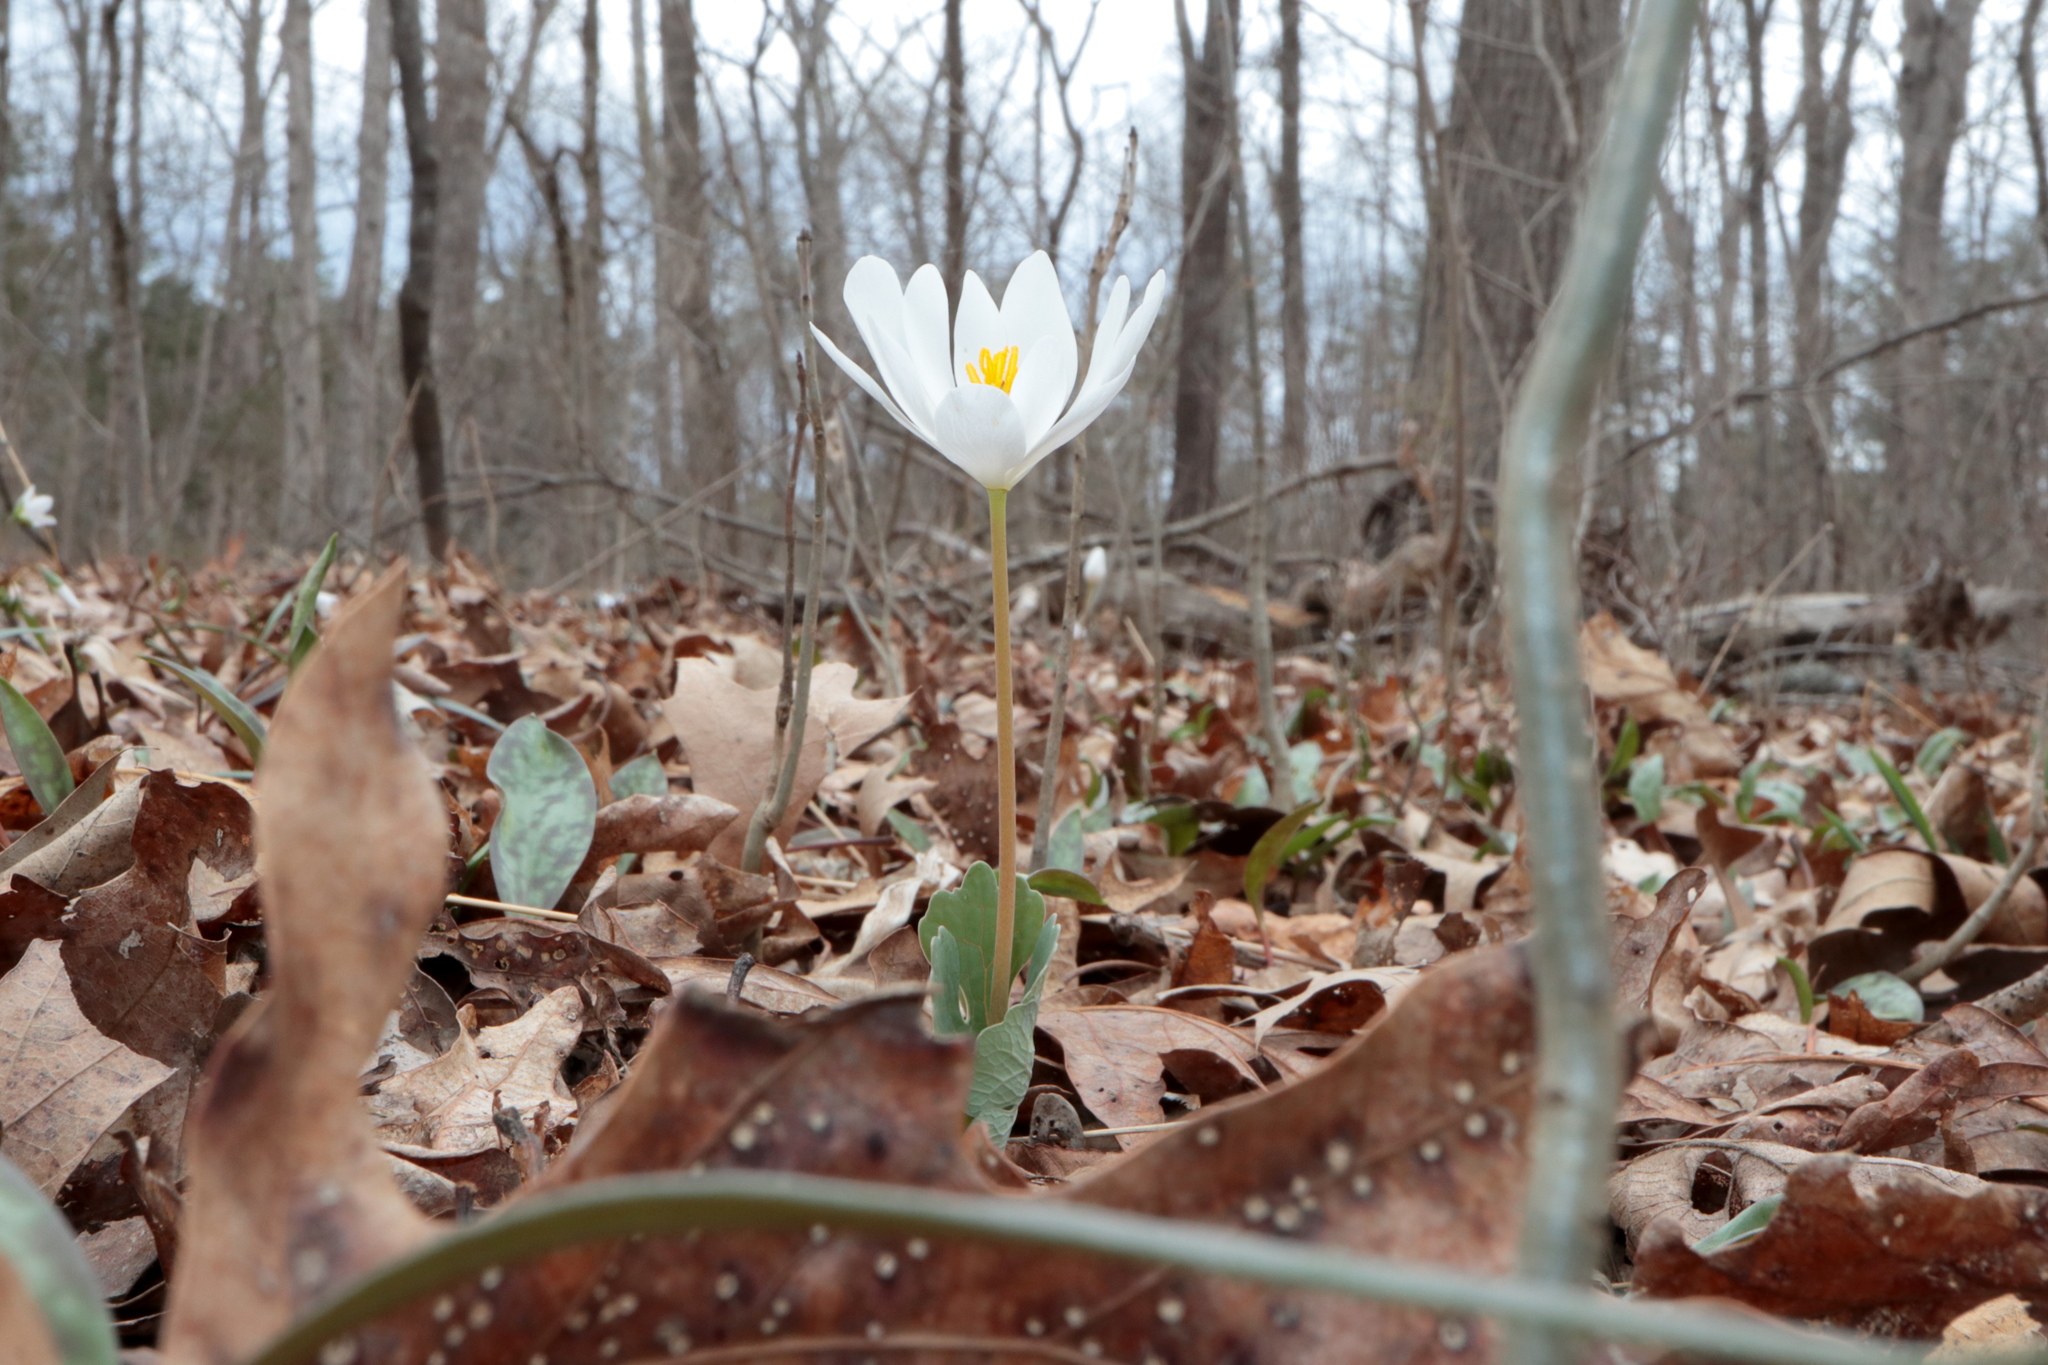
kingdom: Plantae
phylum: Tracheophyta
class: Magnoliopsida
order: Ranunculales
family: Papaveraceae
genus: Sanguinaria
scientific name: Sanguinaria canadensis
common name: Bloodroot
